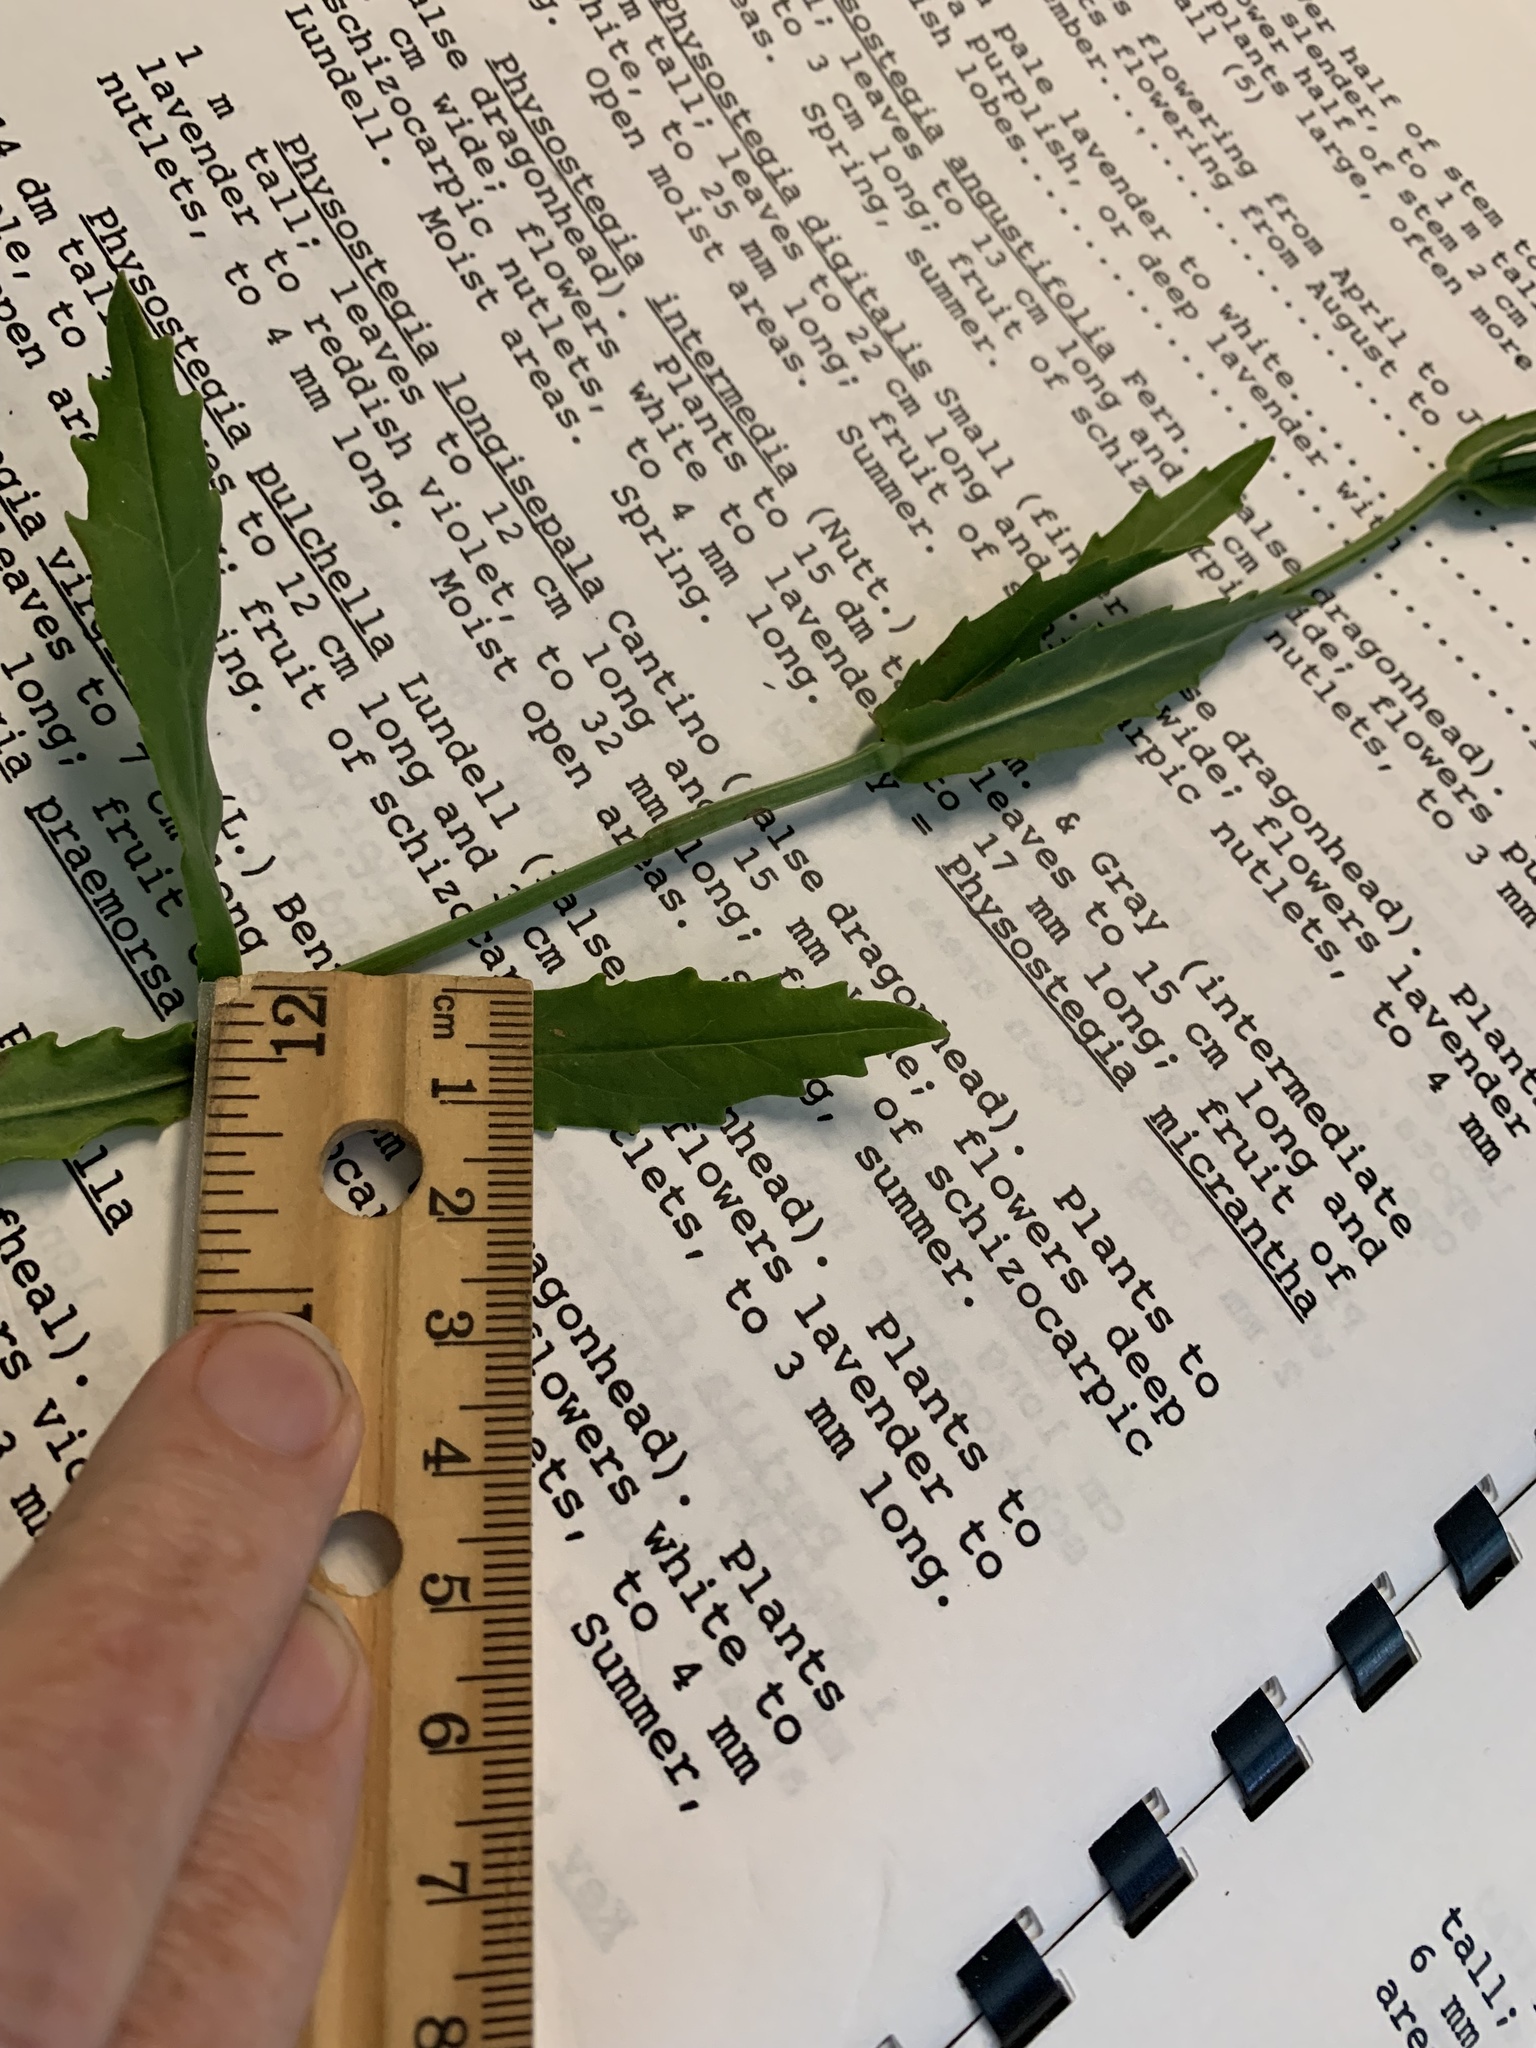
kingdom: Plantae
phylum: Tracheophyta
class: Magnoliopsida
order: Lamiales
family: Lamiaceae
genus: Physostegia
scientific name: Physostegia angustifolia
